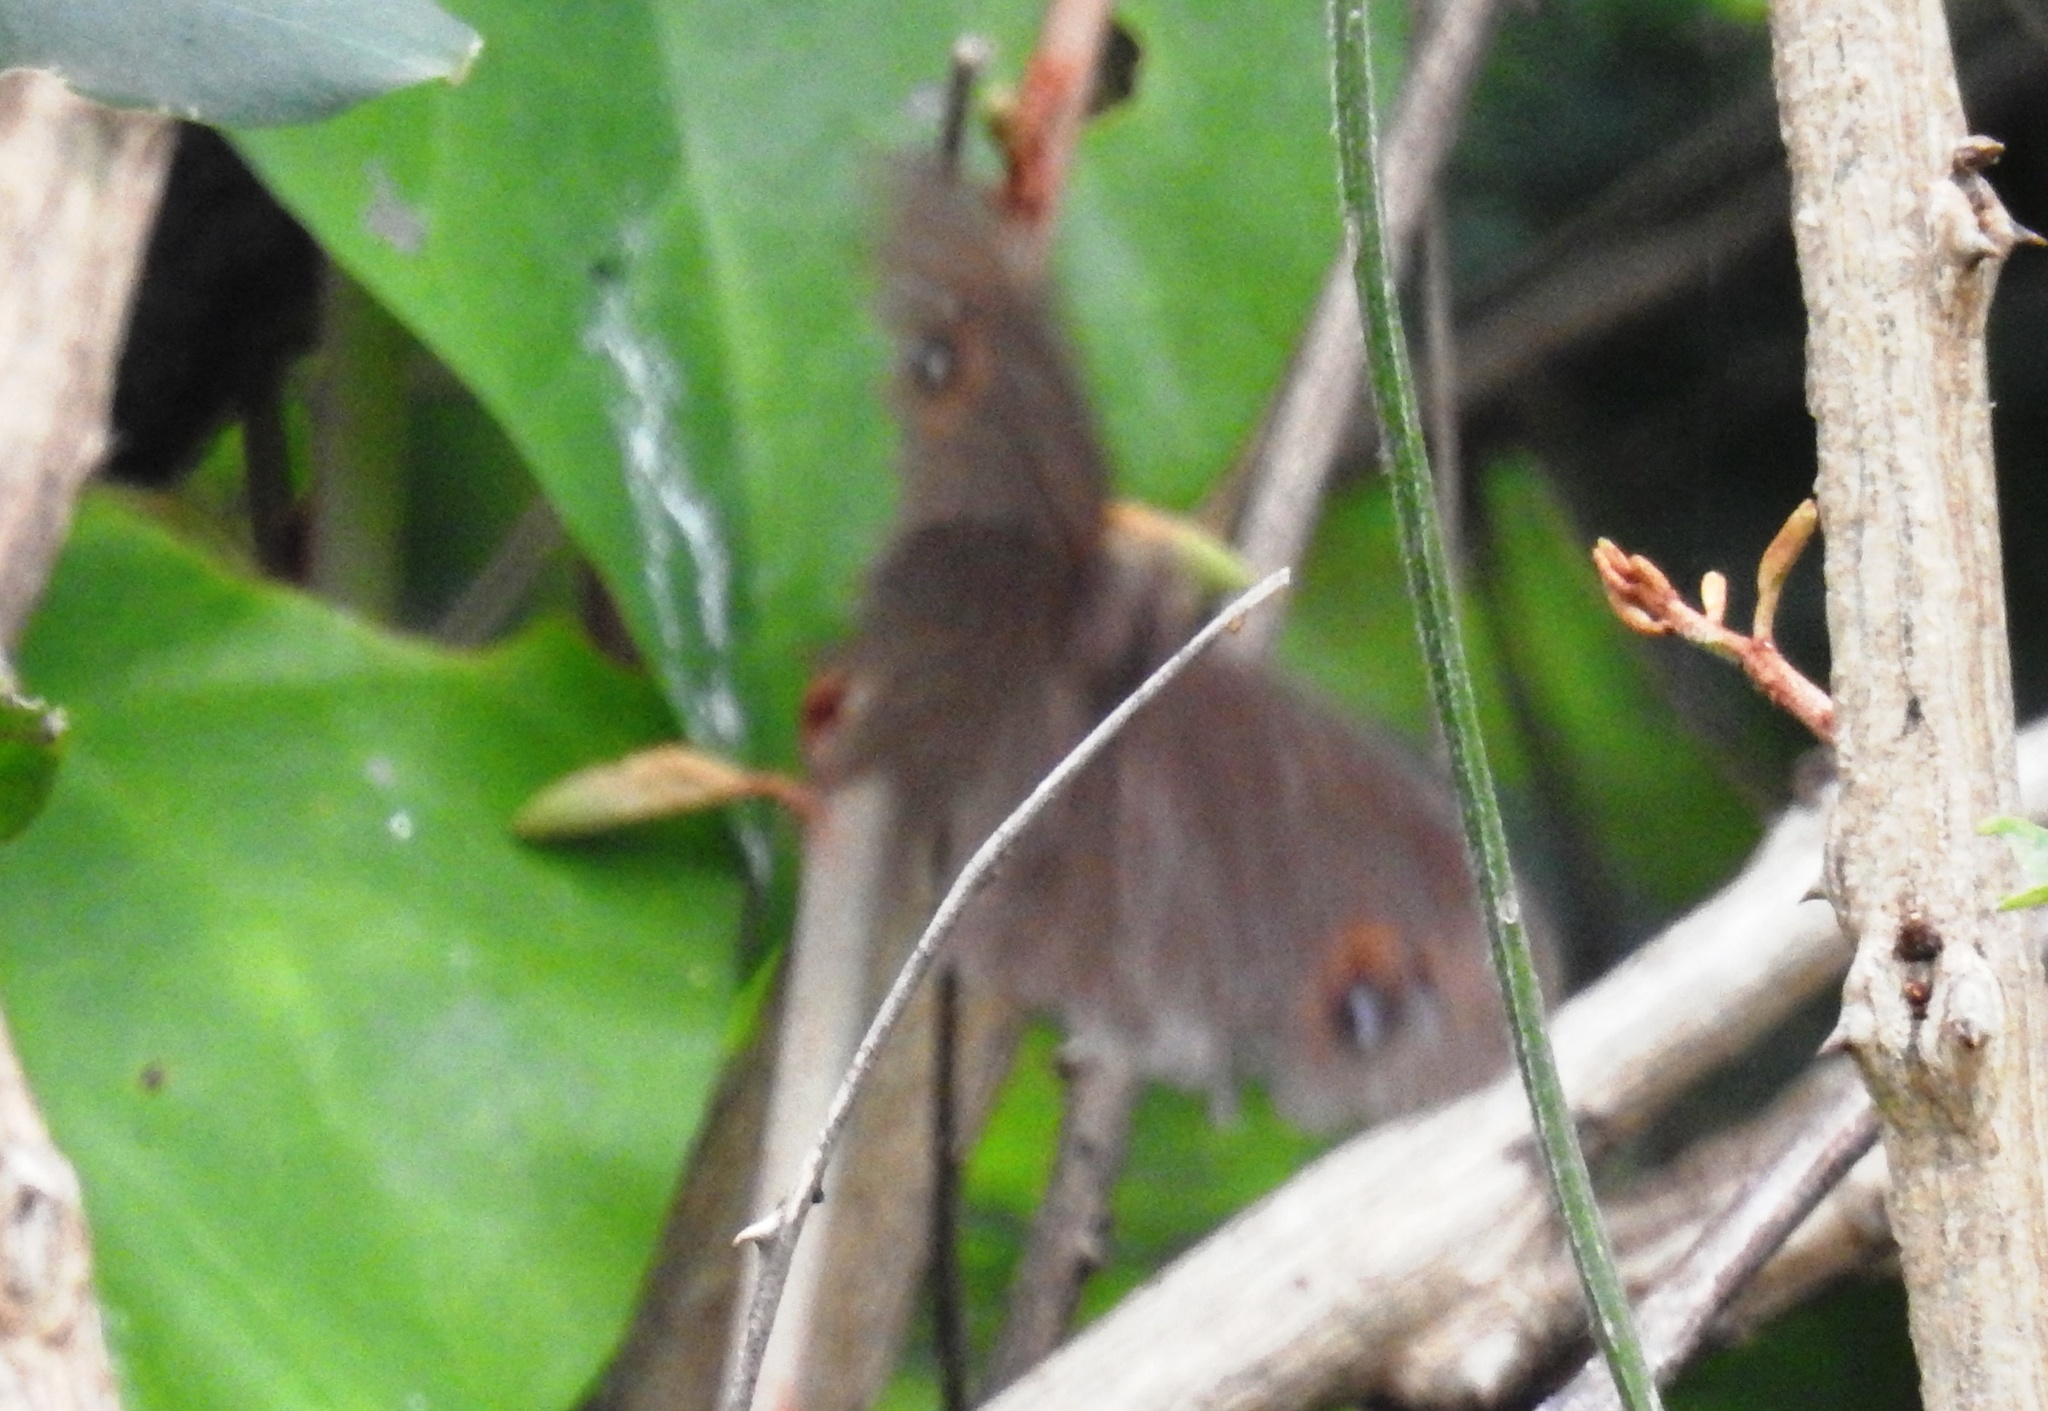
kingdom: Animalia
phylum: Arthropoda
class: Insecta
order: Lepidoptera
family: Nymphalidae
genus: Melanitis
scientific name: Melanitis leda
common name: Twilight brown
